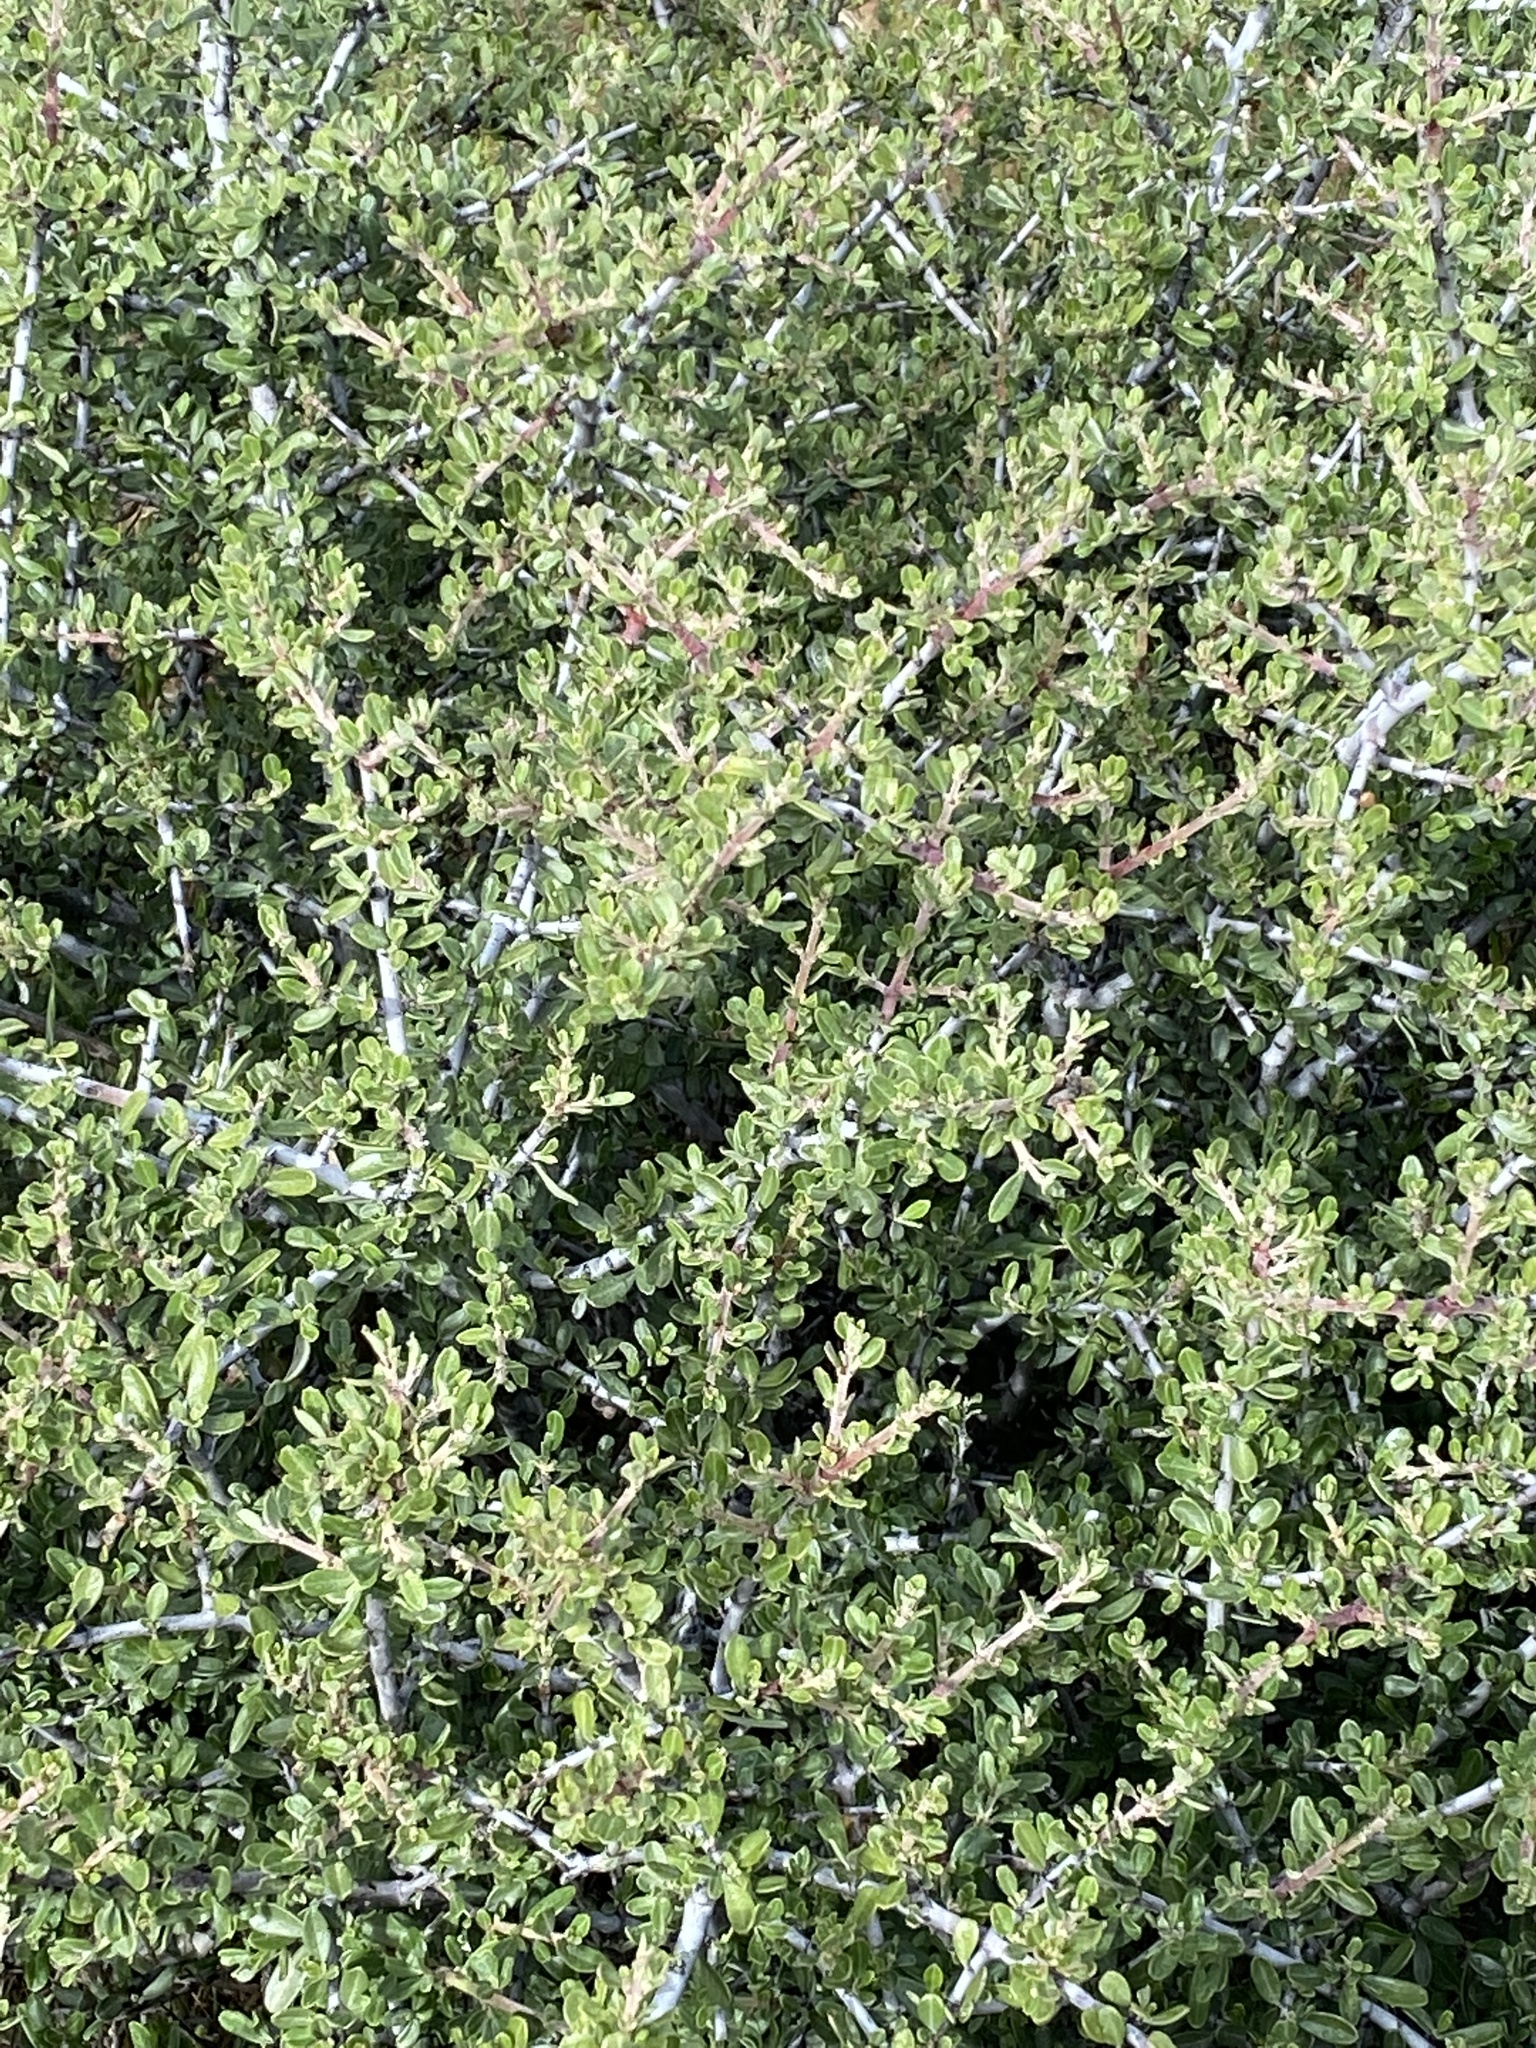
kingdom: Plantae
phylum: Tracheophyta
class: Magnoliopsida
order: Rosales
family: Rhamnaceae
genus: Ceanothus
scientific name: Ceanothus cuneatus
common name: Cuneate ceanothus
